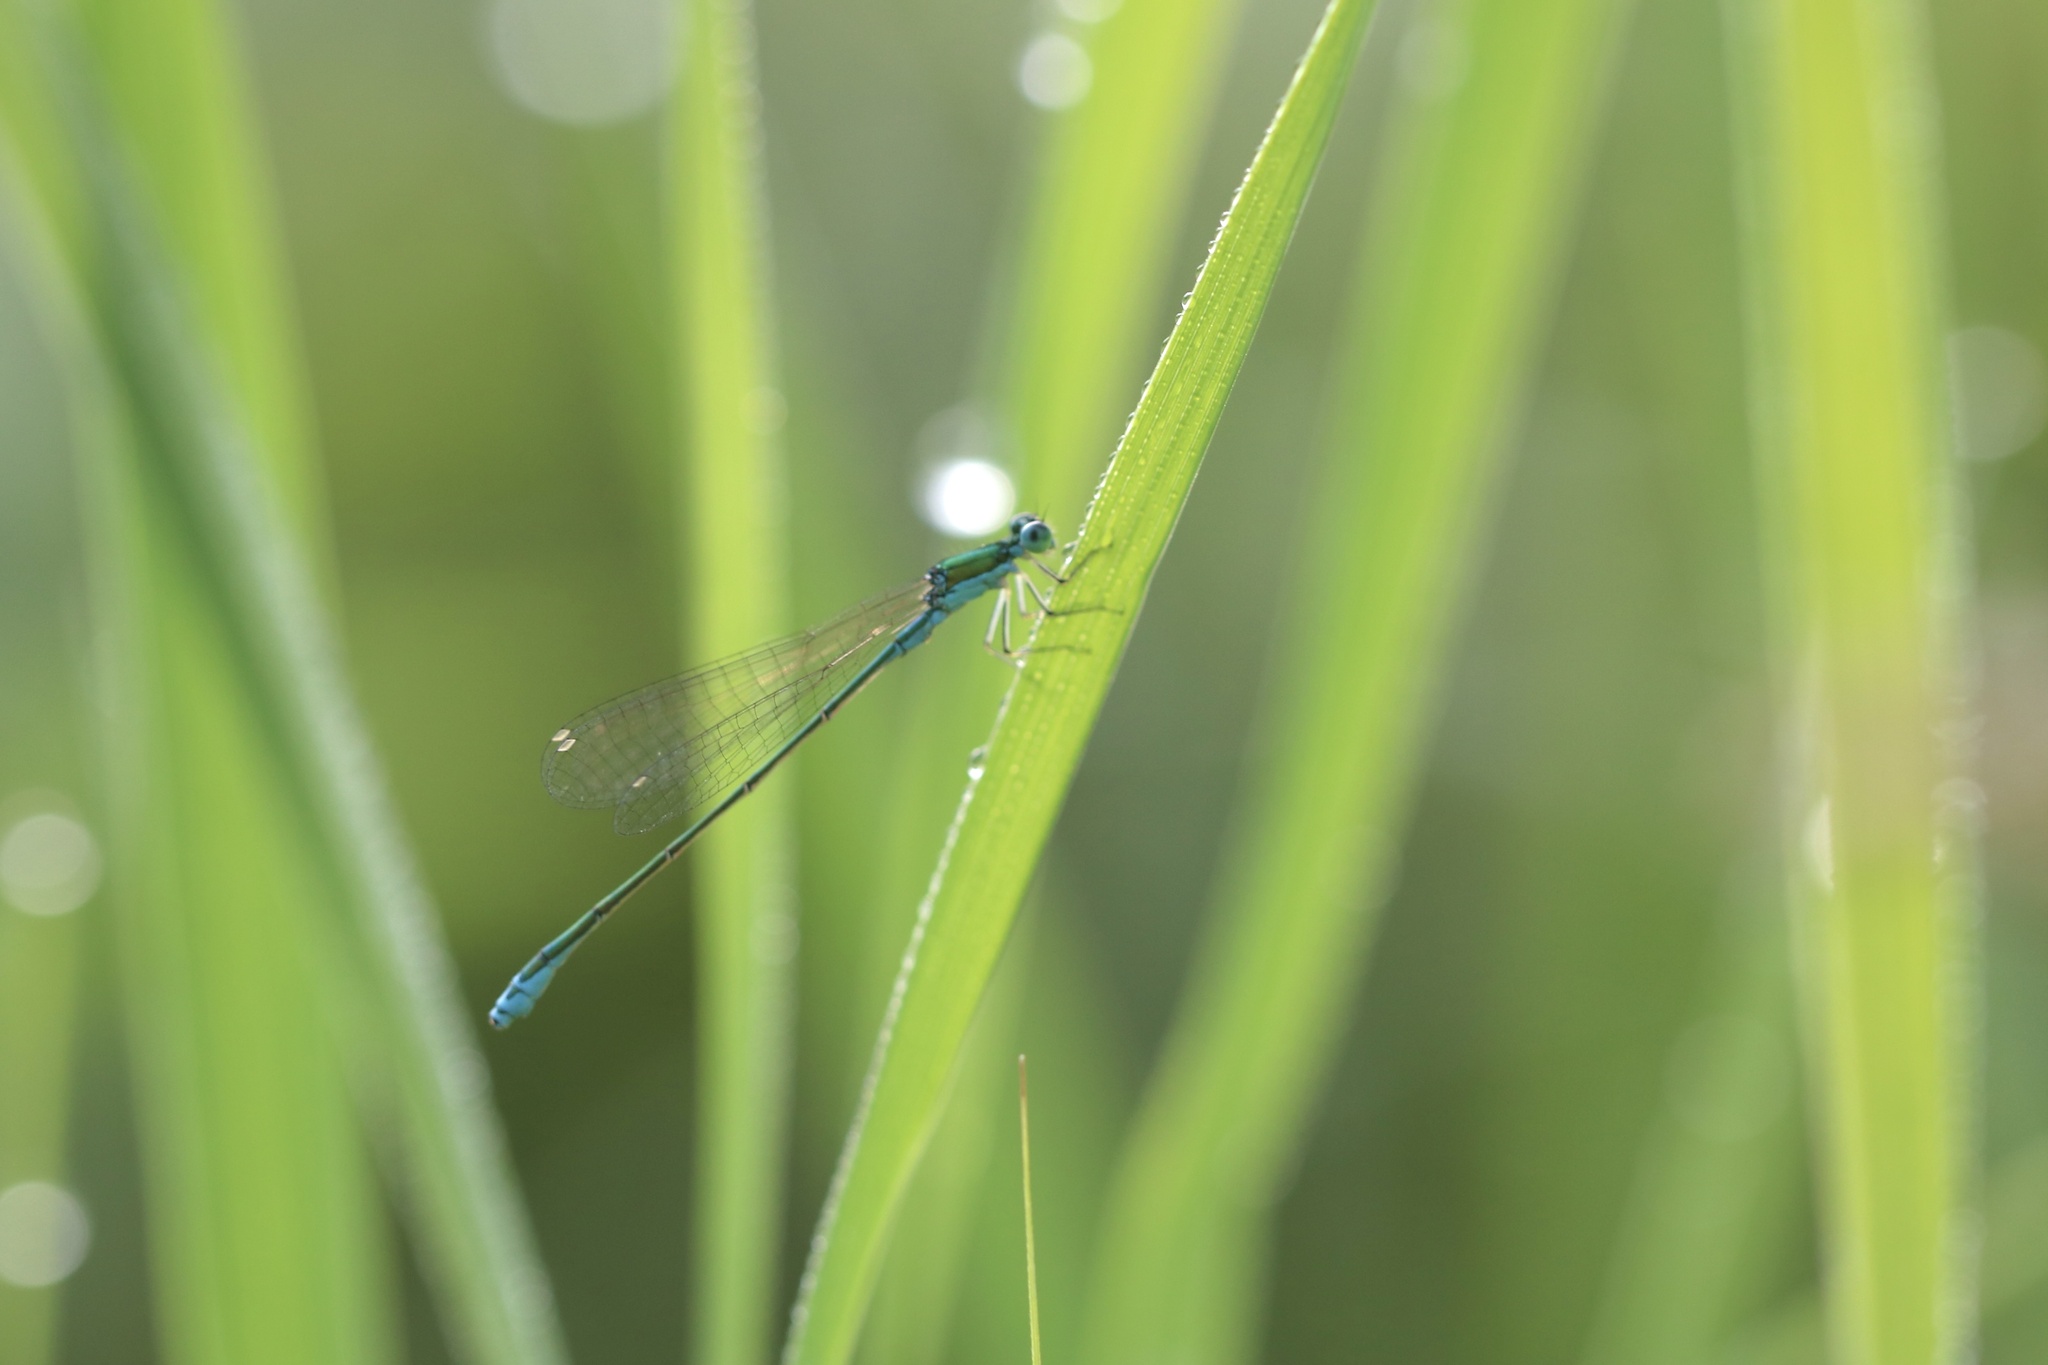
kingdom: Animalia
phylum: Arthropoda
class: Insecta
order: Odonata
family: Coenagrionidae
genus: Nehalennia
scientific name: Nehalennia irene
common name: Sedge sprite
